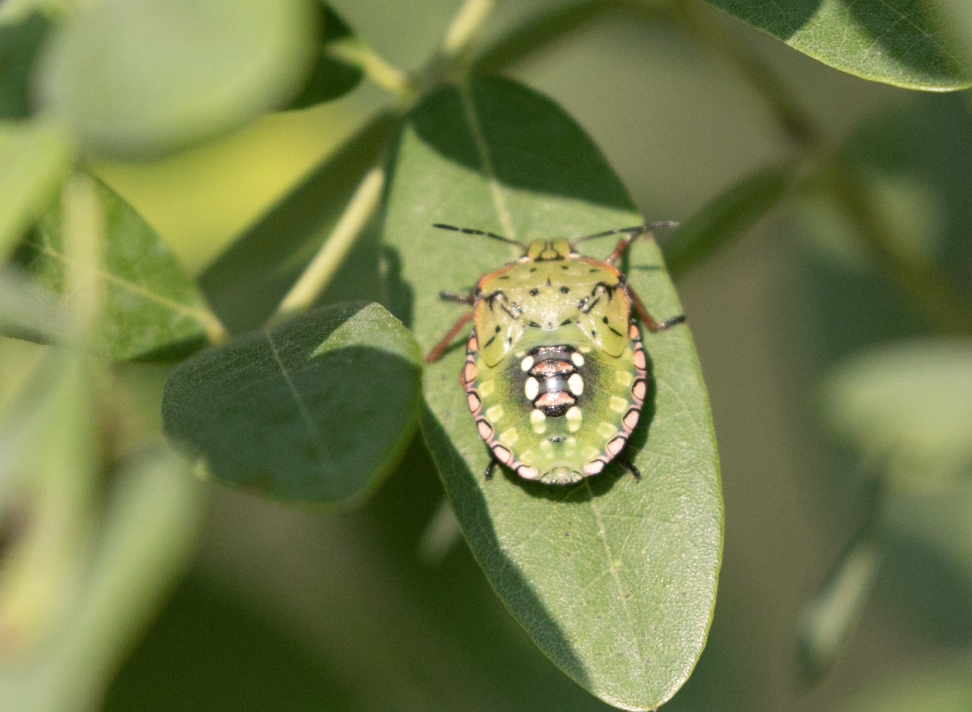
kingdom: Animalia
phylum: Arthropoda
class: Insecta
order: Hemiptera
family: Pentatomidae
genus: Nezara
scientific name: Nezara viridula
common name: Southern green stink bug
